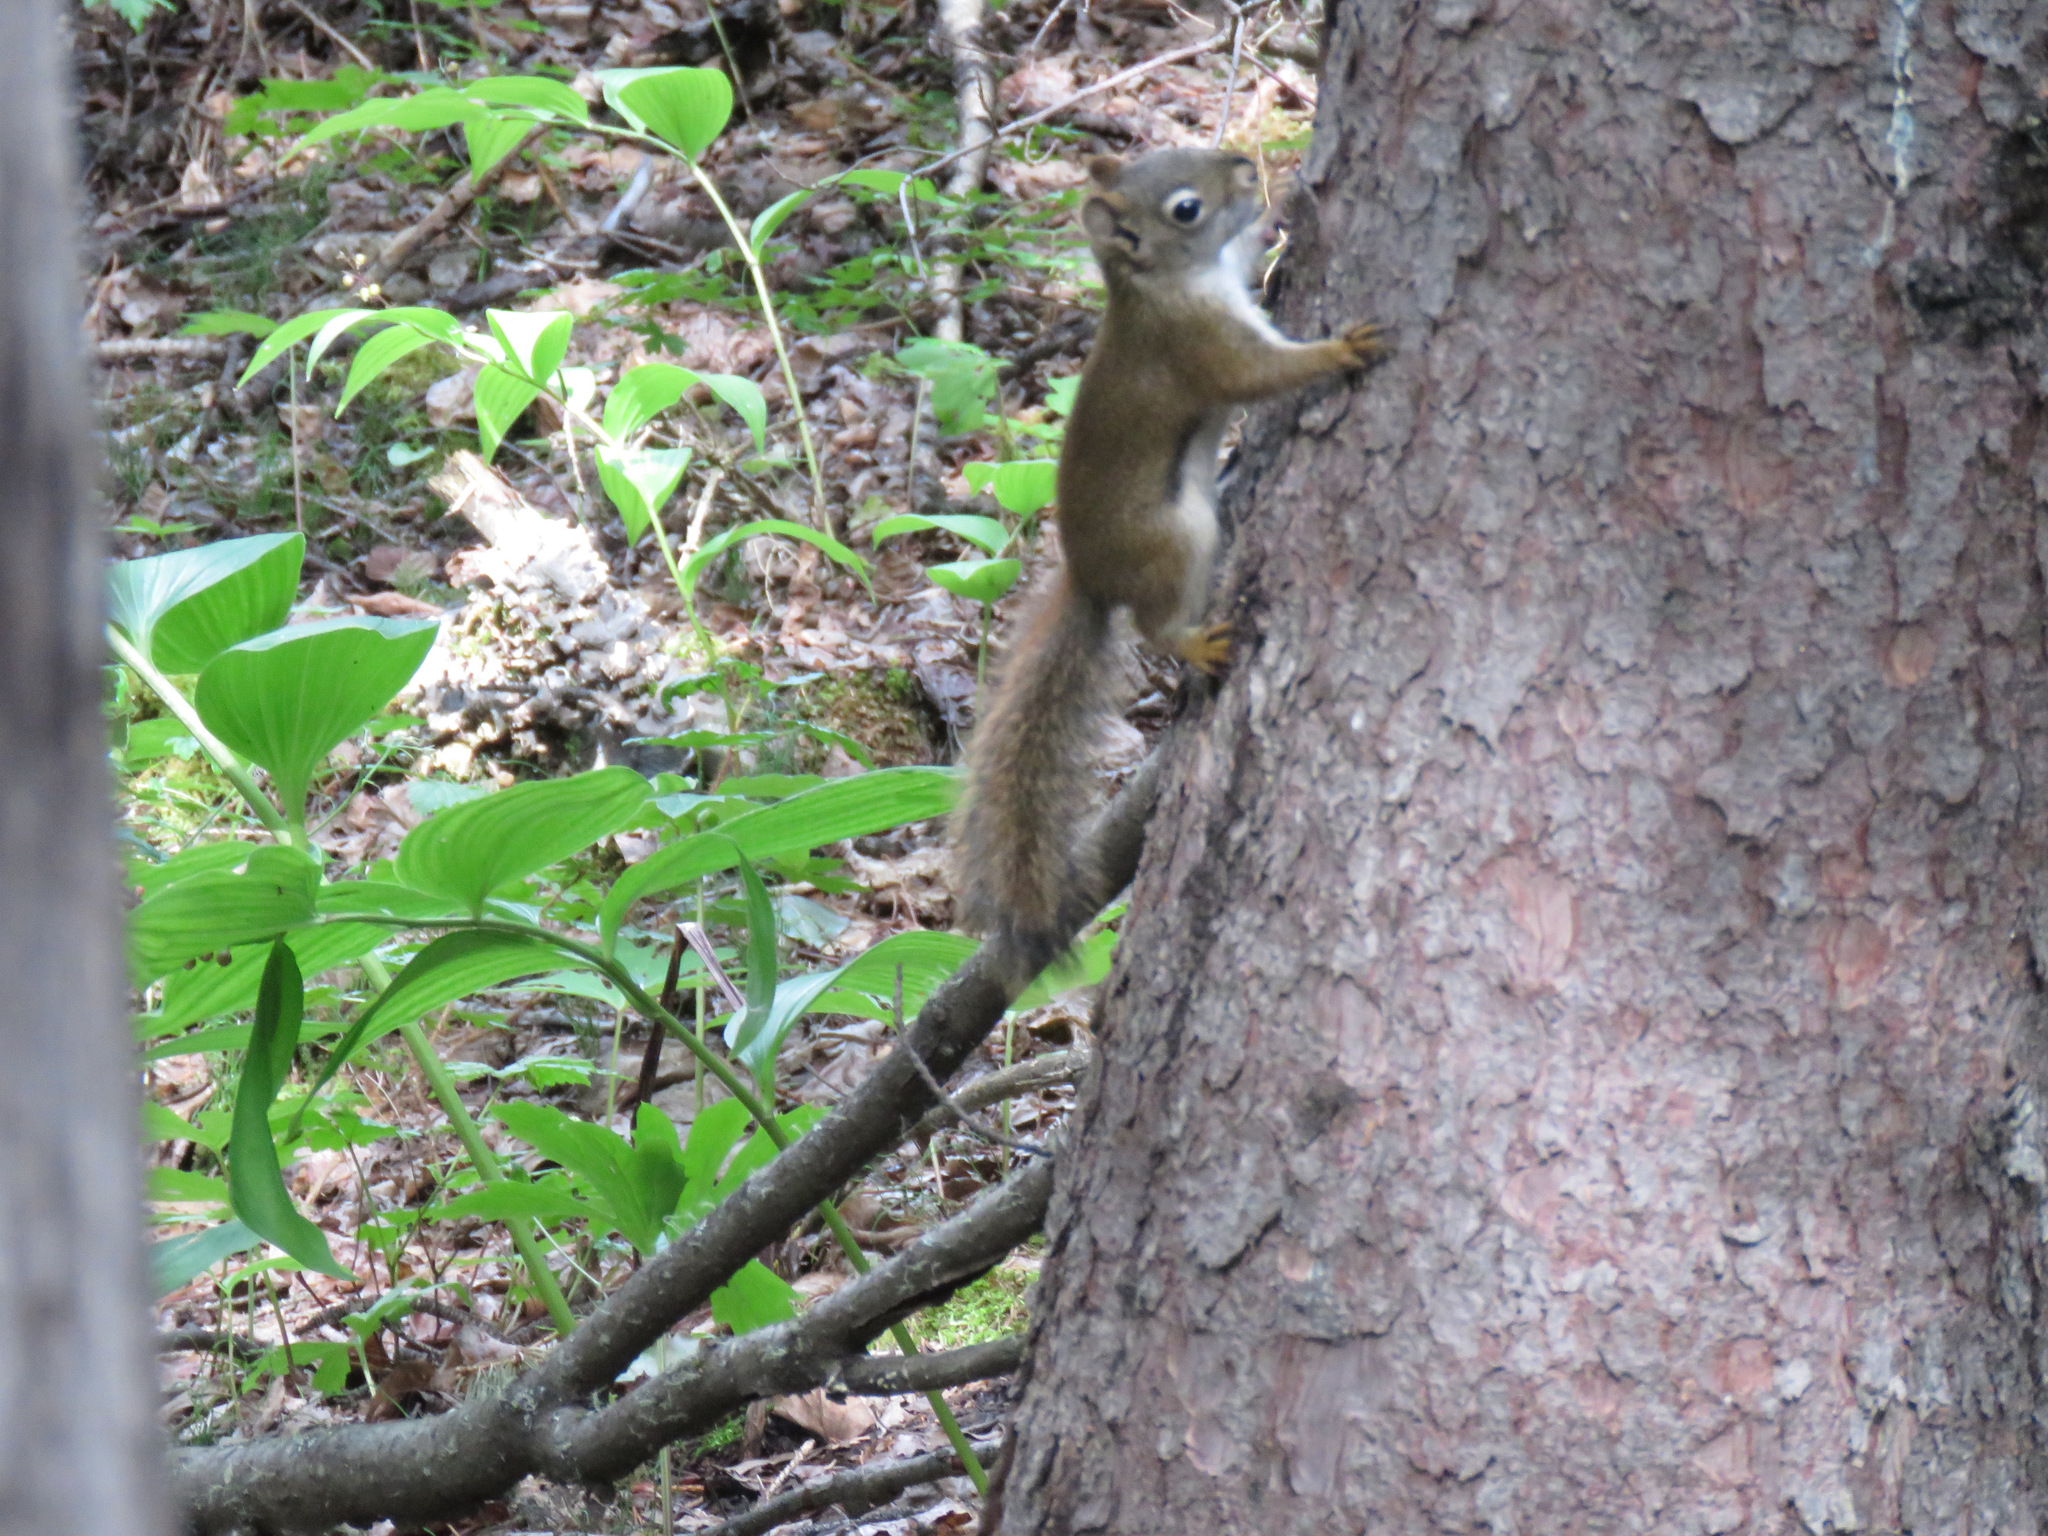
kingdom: Animalia
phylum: Chordata
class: Mammalia
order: Rodentia
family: Sciuridae
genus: Tamiasciurus
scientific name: Tamiasciurus hudsonicus
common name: Red squirrel
